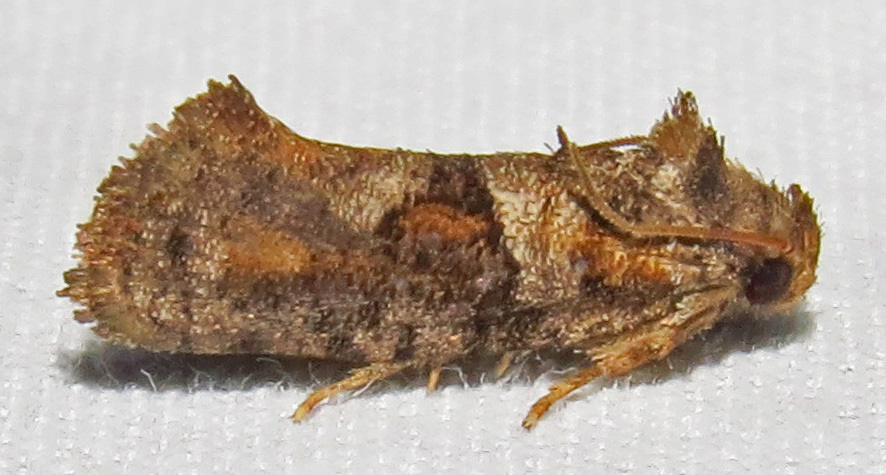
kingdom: Animalia
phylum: Arthropoda
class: Insecta
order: Lepidoptera
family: Tineidae
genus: Acrolophus
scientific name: Acrolophus piger
